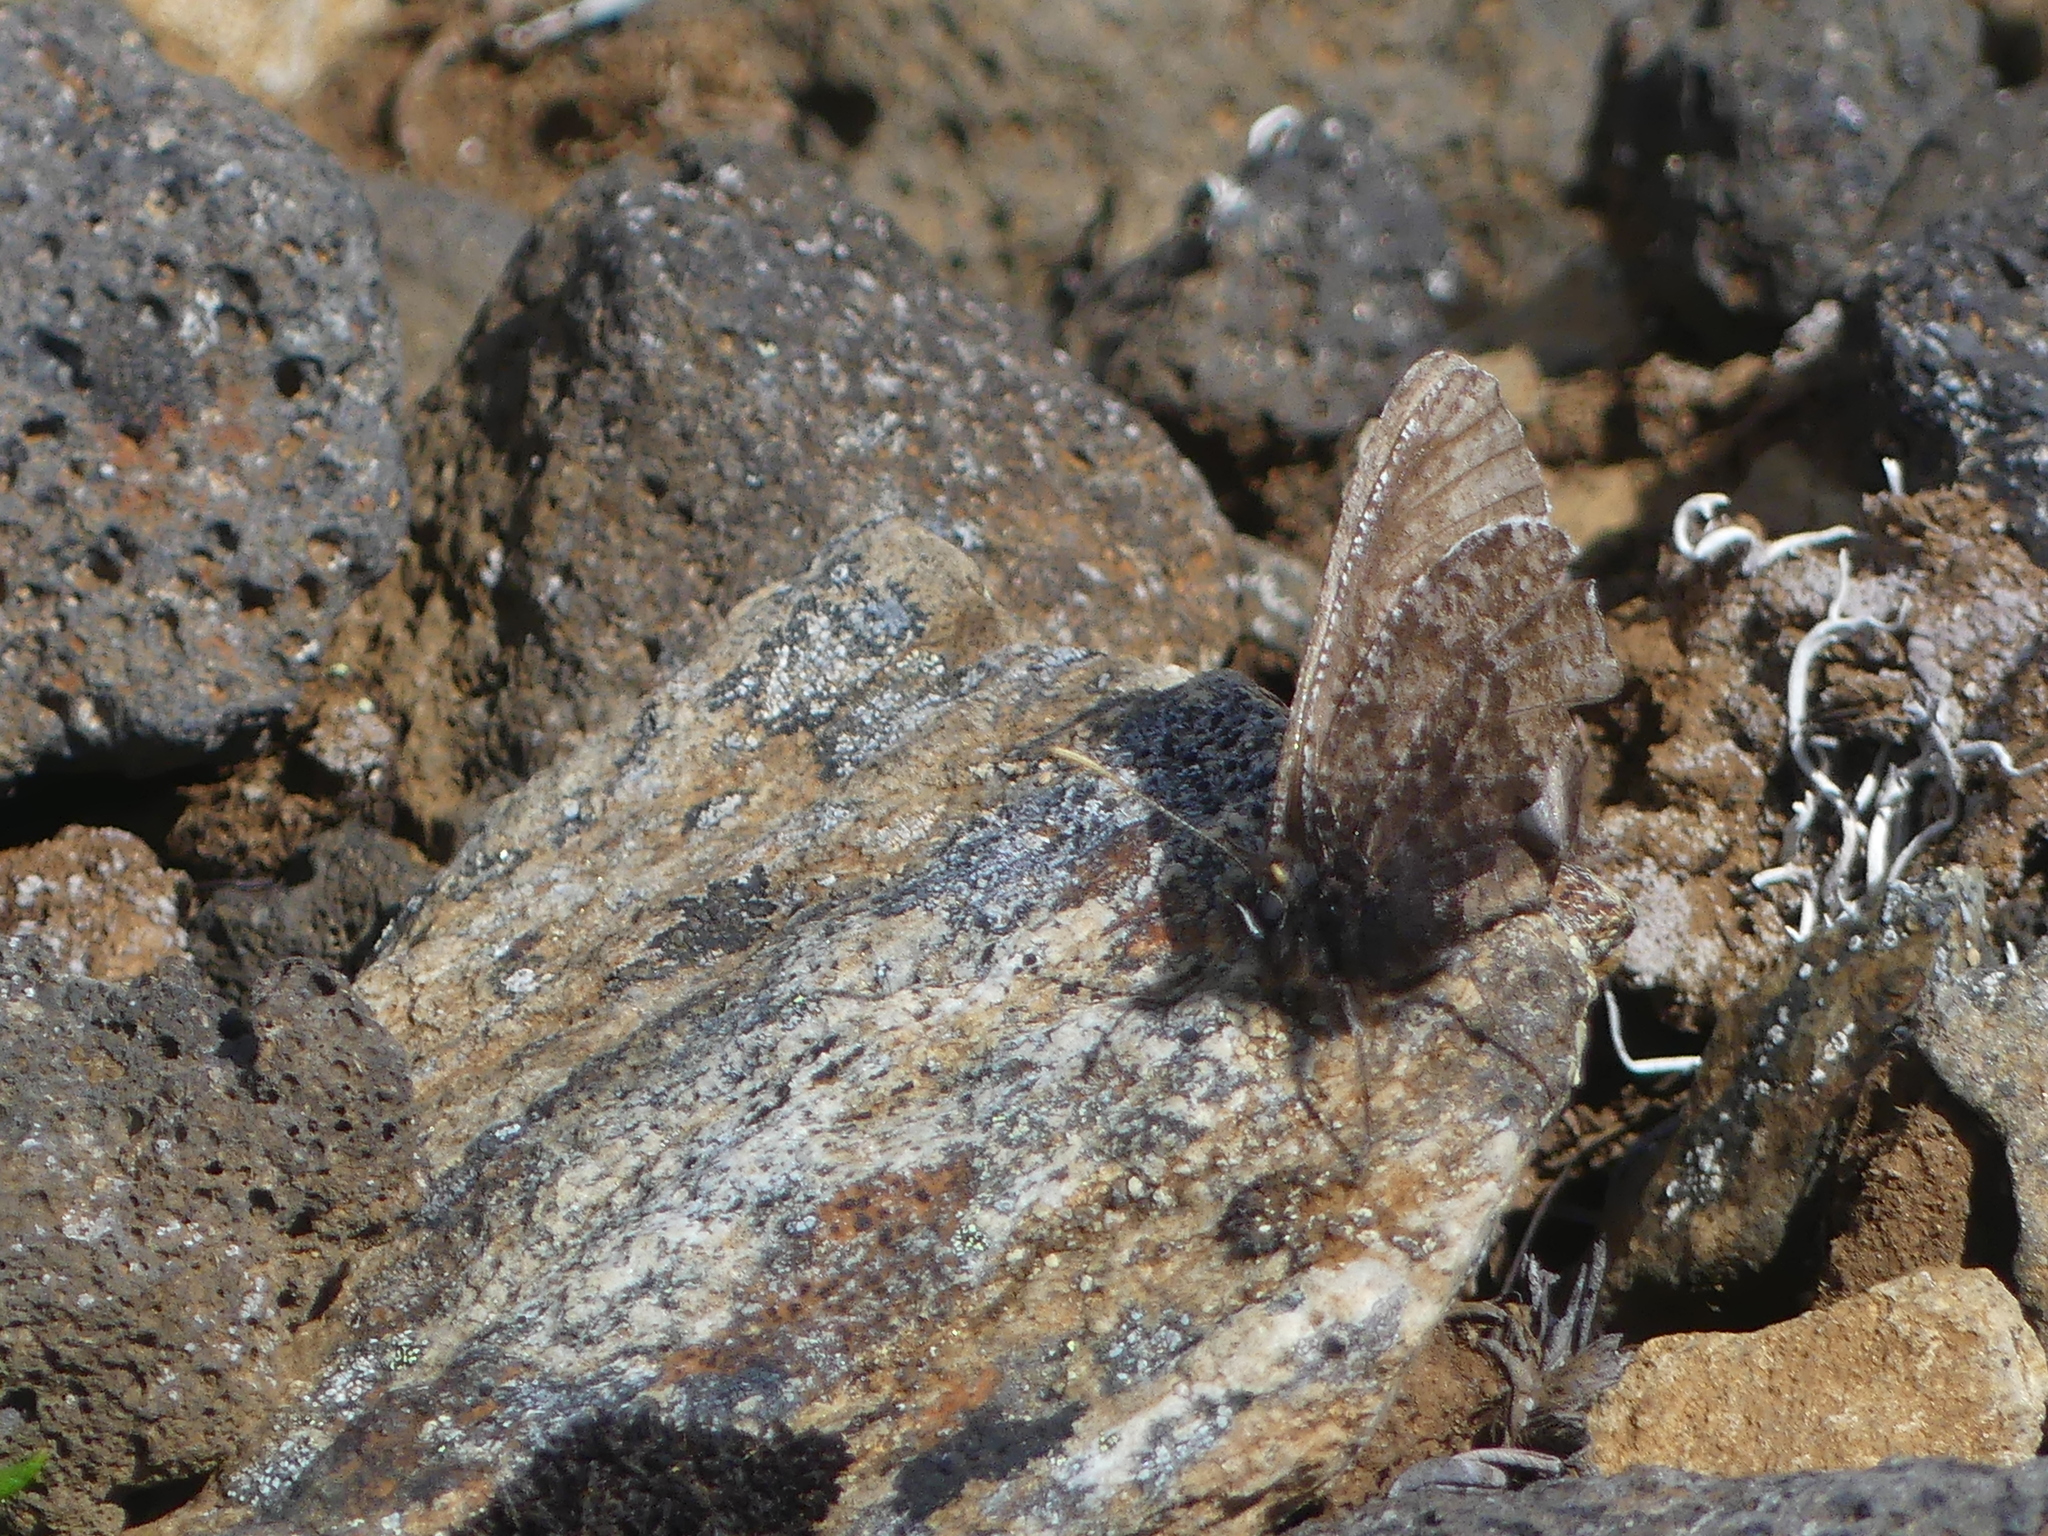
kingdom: Animalia
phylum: Arthropoda
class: Insecta
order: Lepidoptera
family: Nymphalidae
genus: Oeneis
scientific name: Oeneis melissa
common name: Melissa arctic
